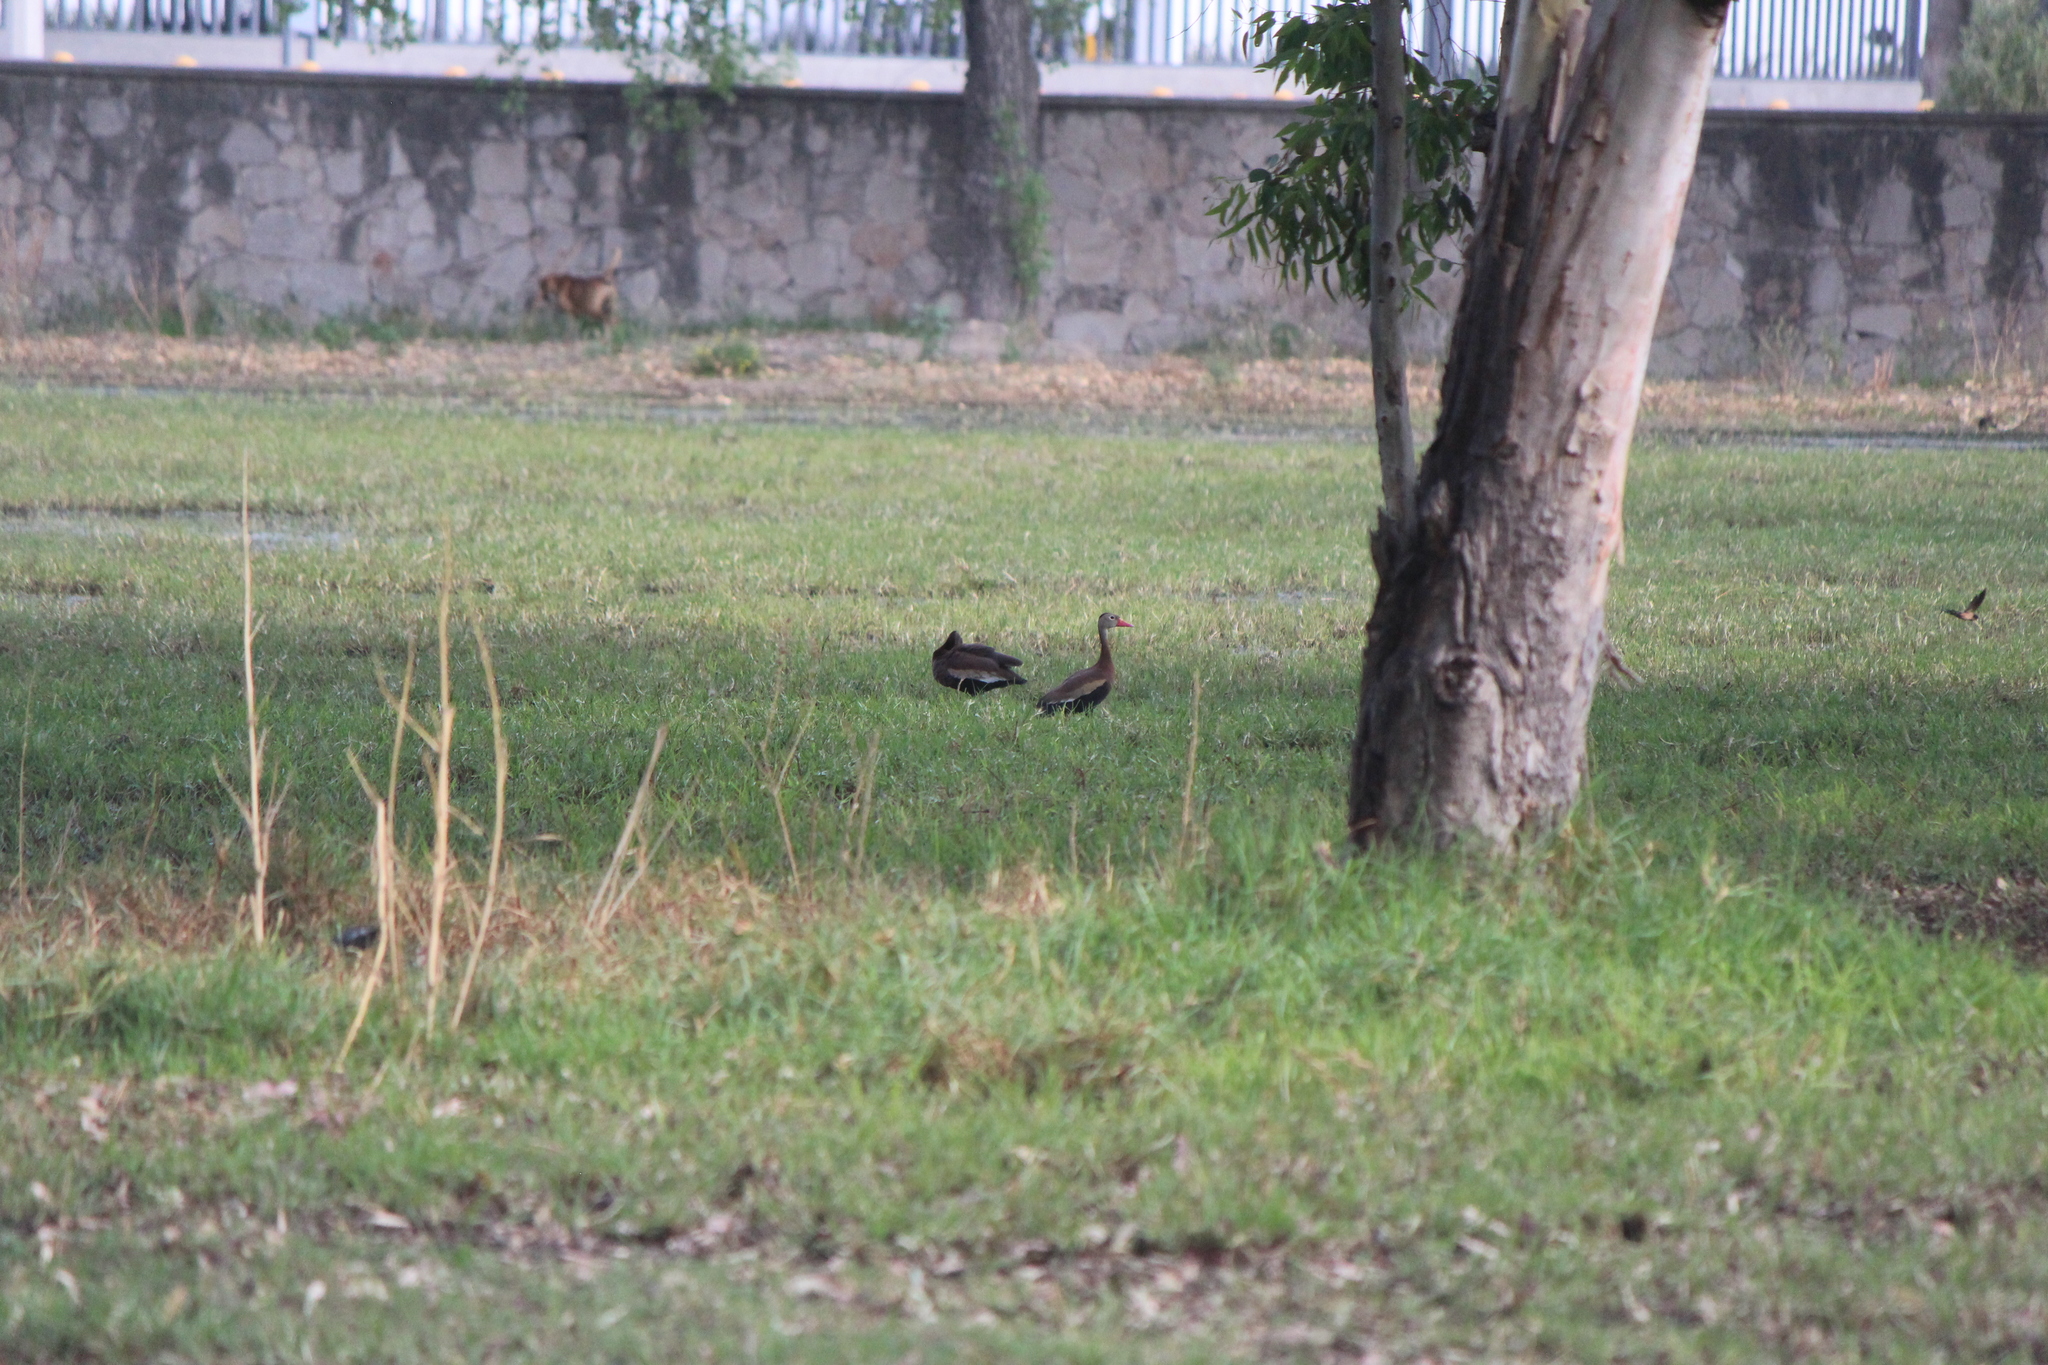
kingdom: Animalia
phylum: Chordata
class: Aves
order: Anseriformes
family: Anatidae
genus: Dendrocygna
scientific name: Dendrocygna autumnalis
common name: Black-bellied whistling duck
